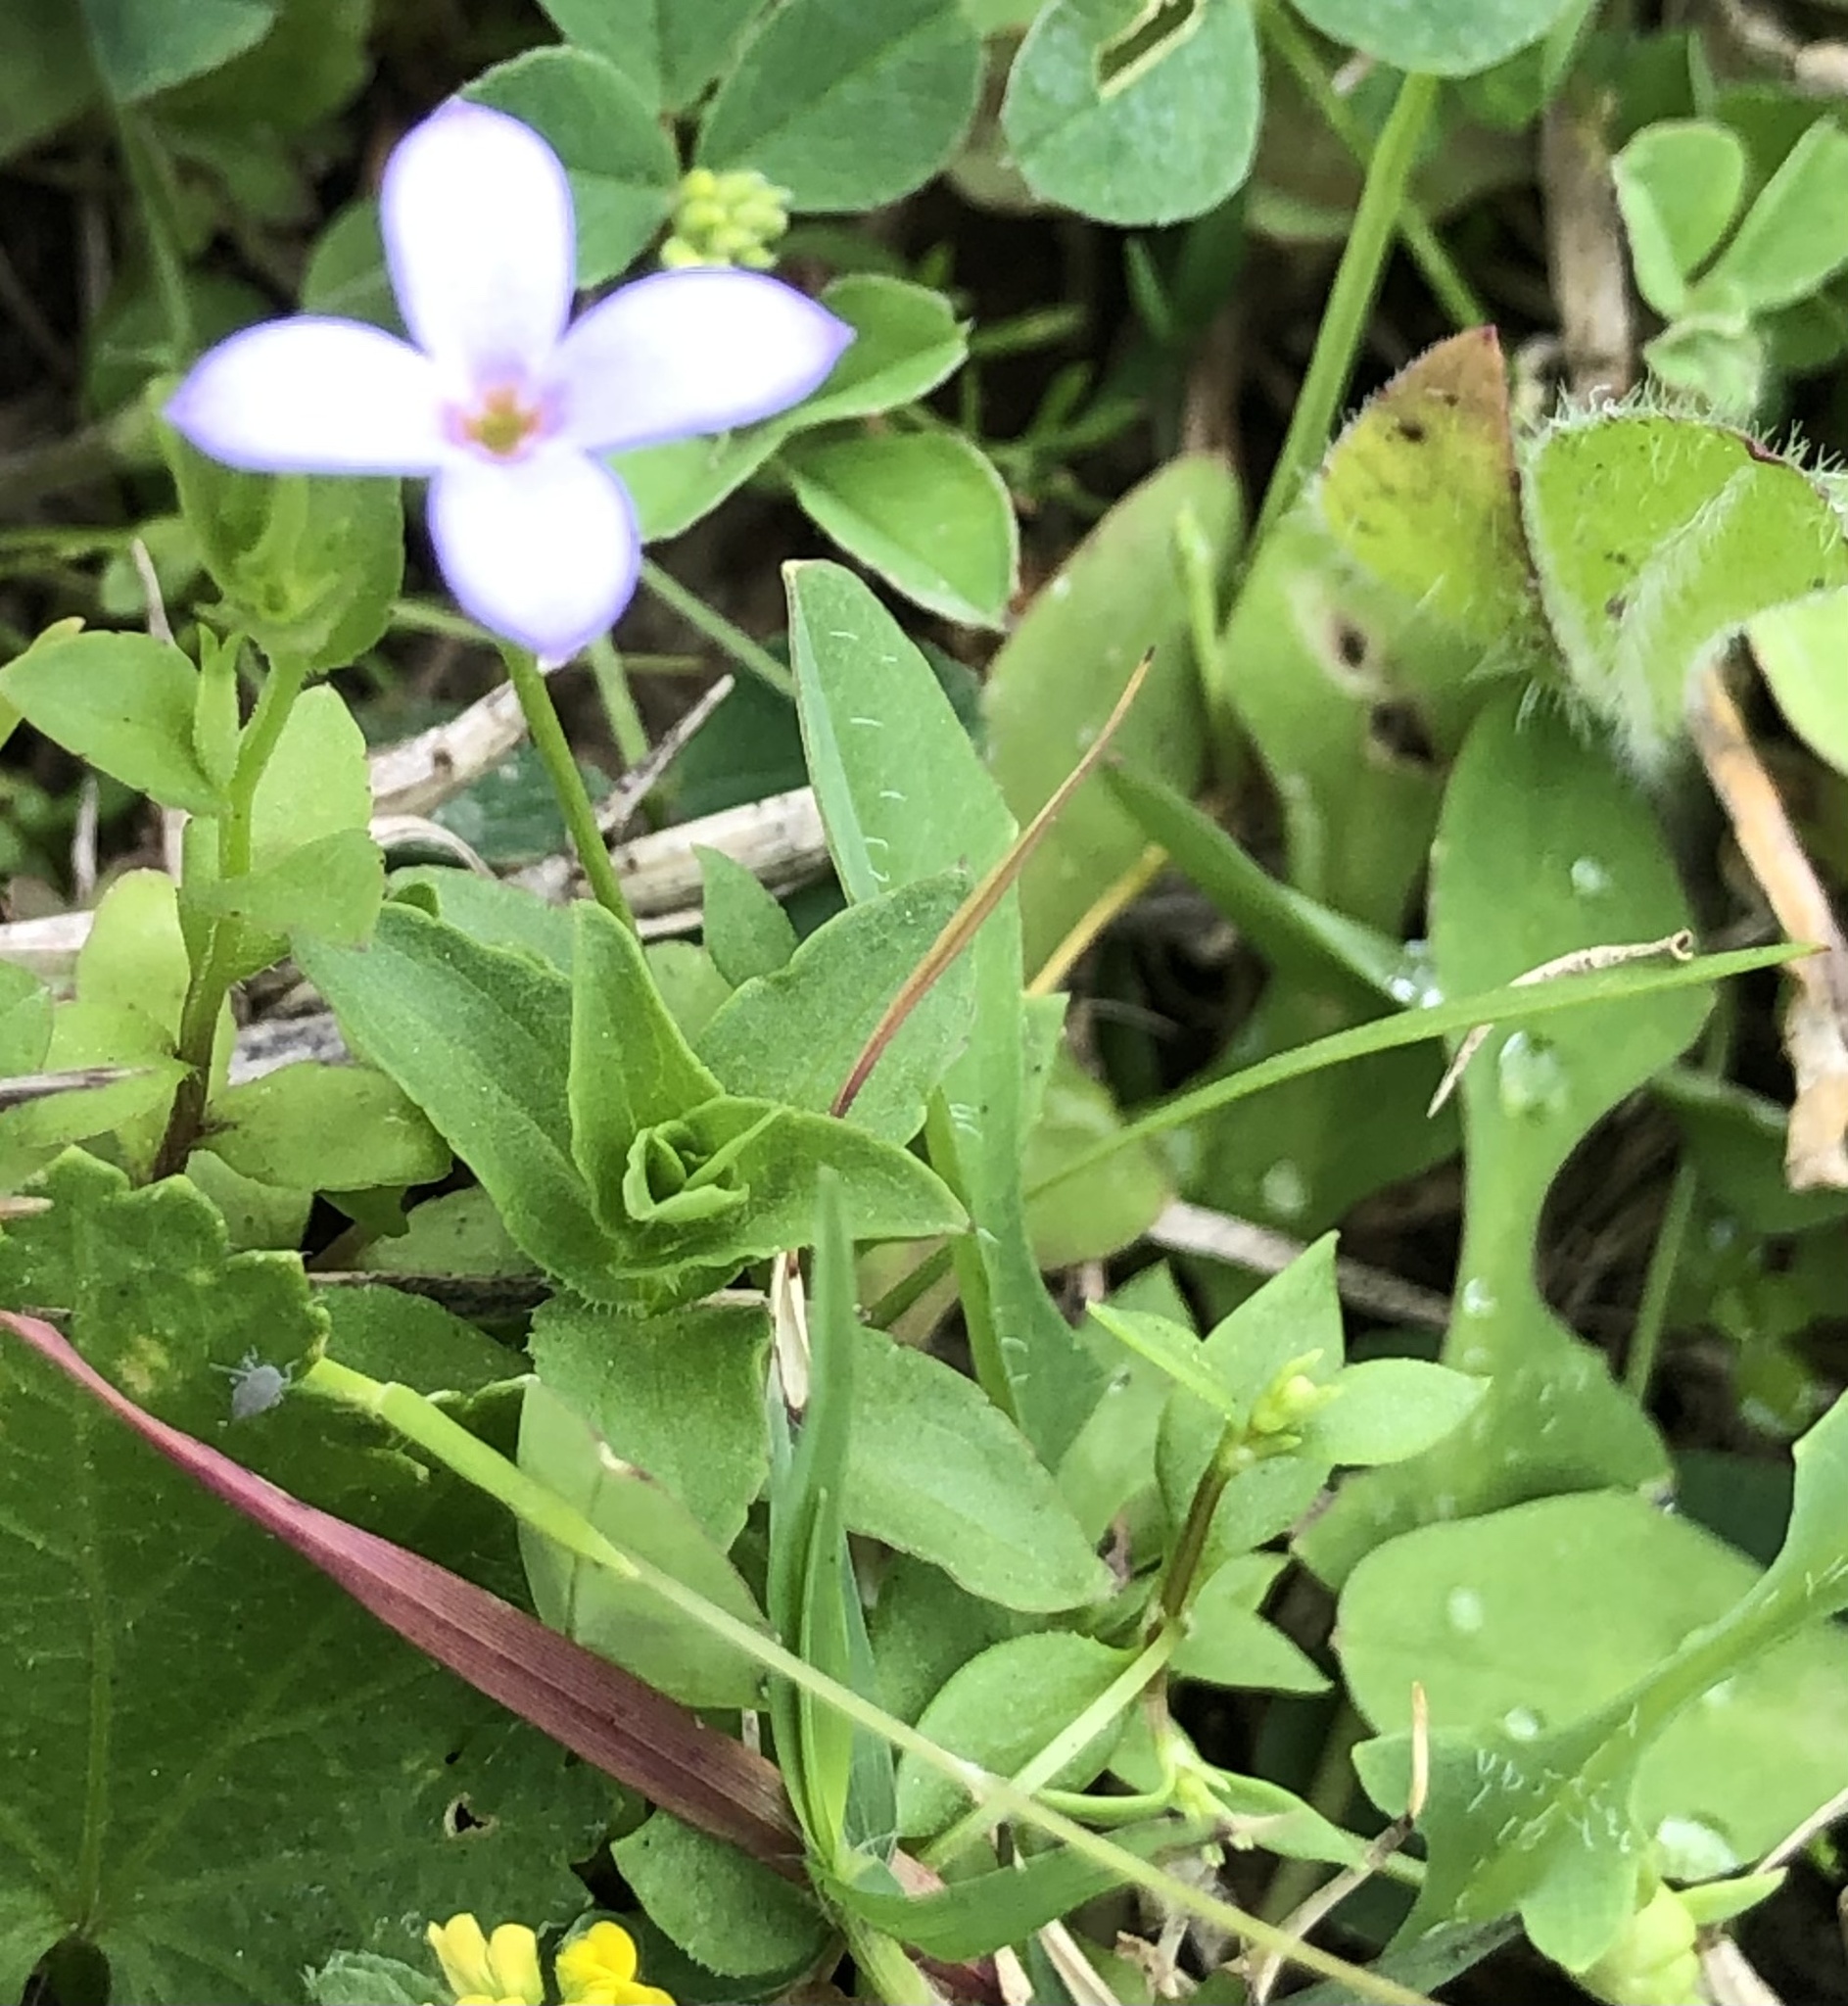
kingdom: Plantae
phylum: Tracheophyta
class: Magnoliopsida
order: Gentianales
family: Rubiaceae
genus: Houstonia
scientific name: Houstonia pusilla
